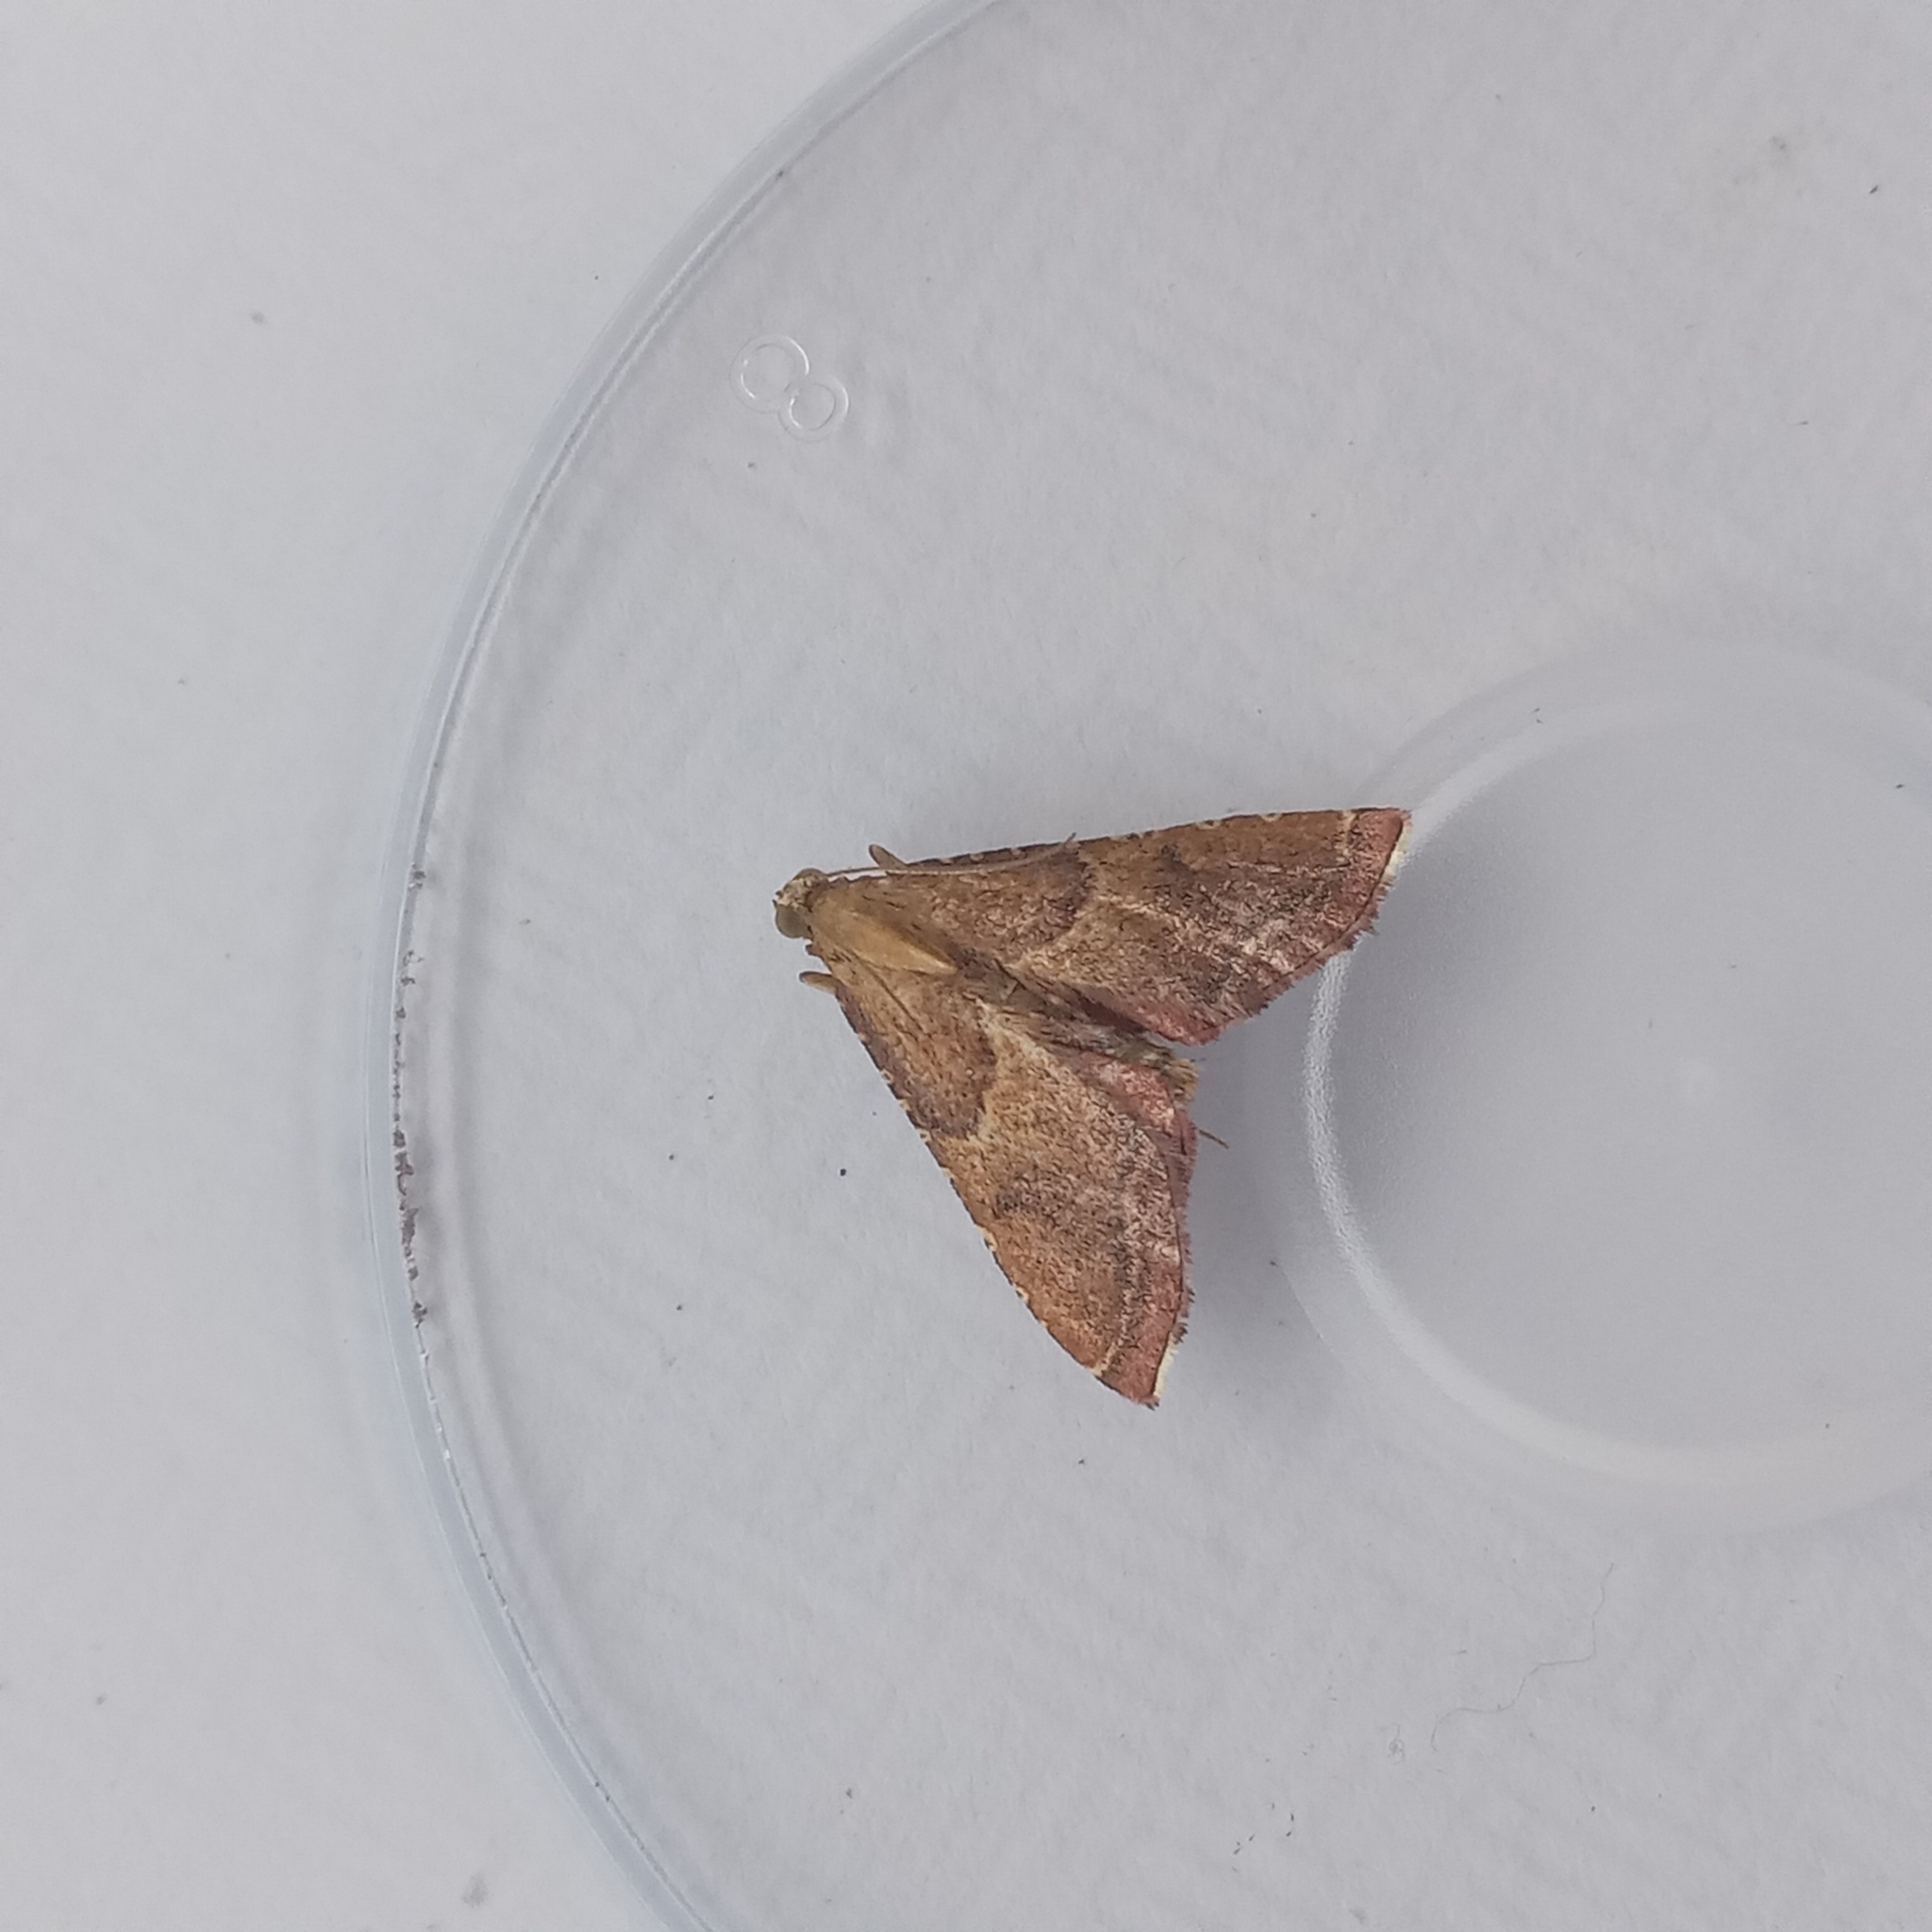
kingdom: Animalia
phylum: Arthropoda
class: Insecta
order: Lepidoptera
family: Pyralidae
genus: Endotricha
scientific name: Endotricha flammealis
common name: Rosy tabby
